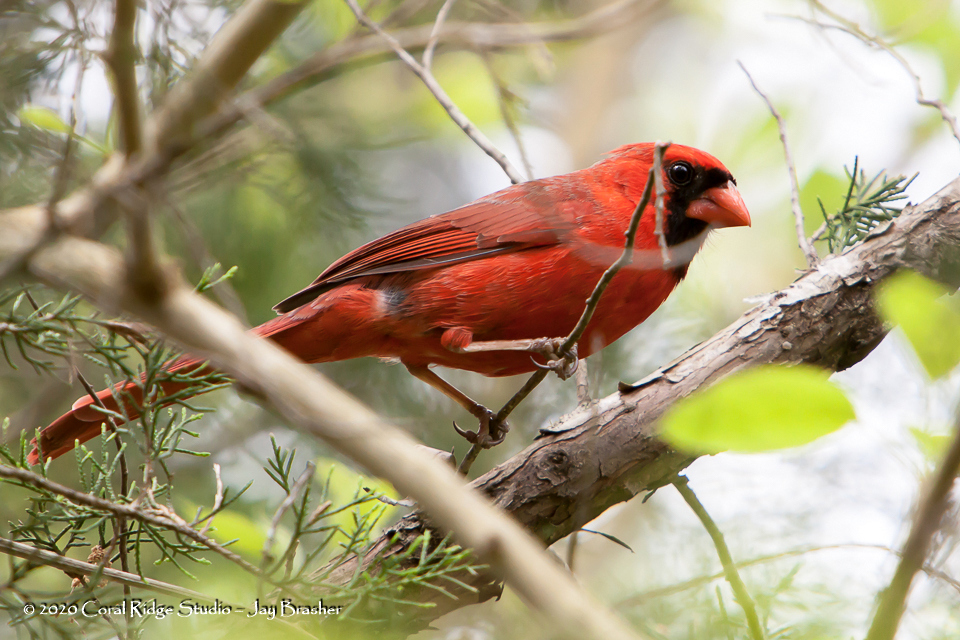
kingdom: Animalia
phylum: Chordata
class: Aves
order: Passeriformes
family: Cardinalidae
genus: Cardinalis
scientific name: Cardinalis cardinalis
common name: Northern cardinal
